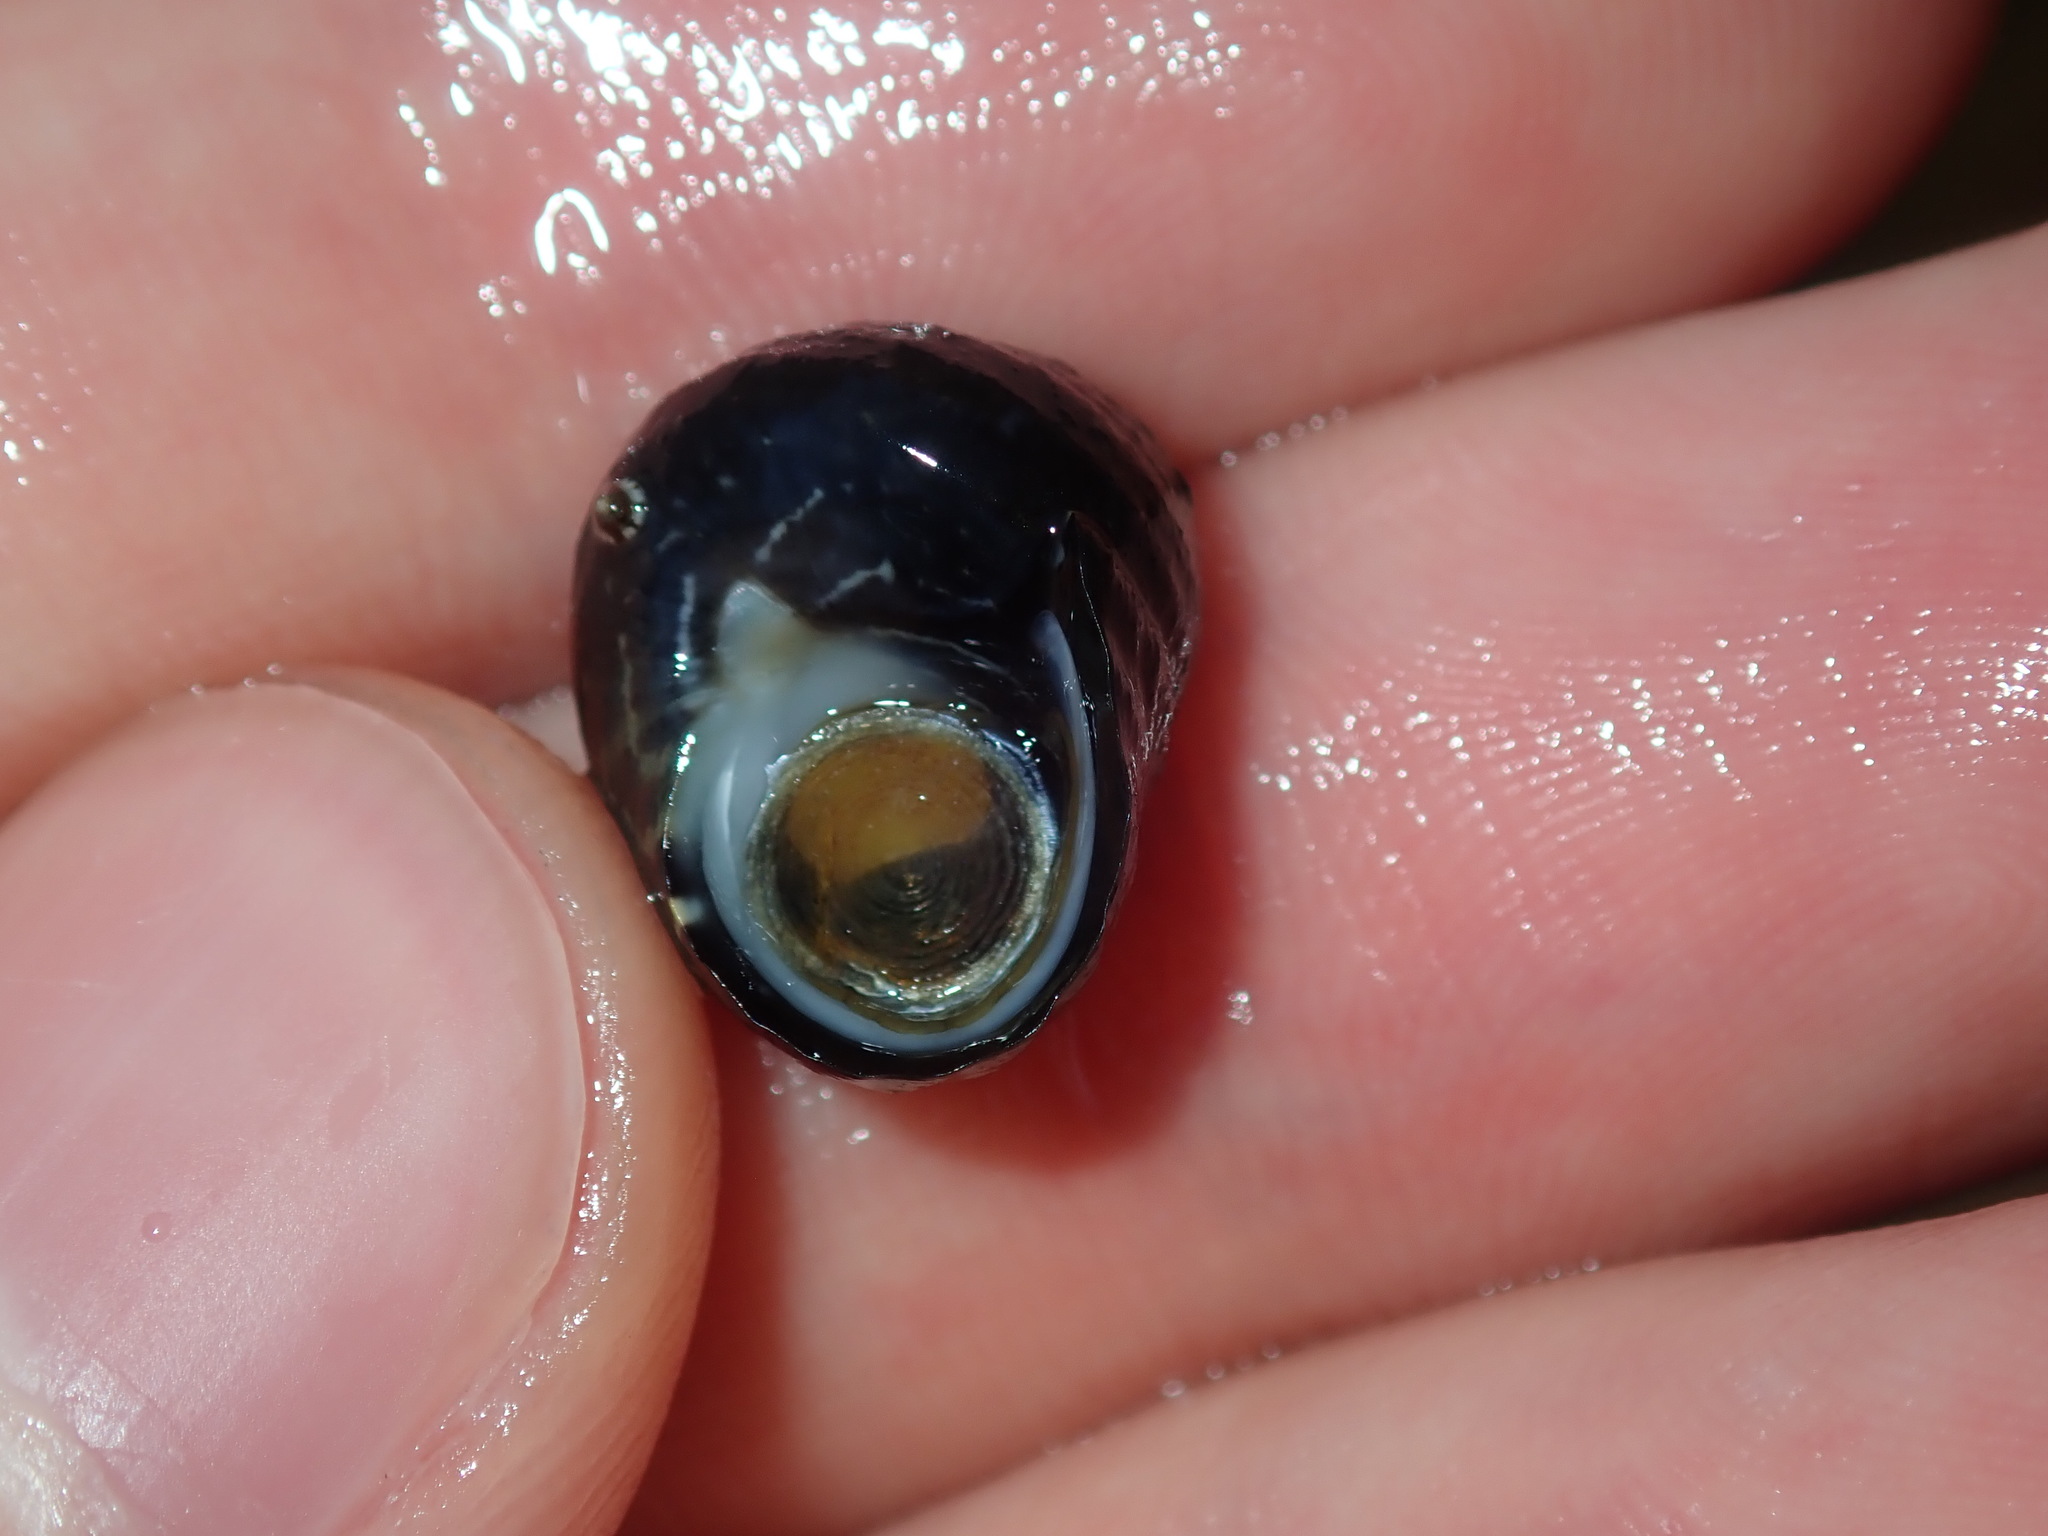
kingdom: Animalia
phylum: Mollusca
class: Gastropoda
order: Trochida
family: Trochidae
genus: Austrocochlea
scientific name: Austrocochlea constricta
